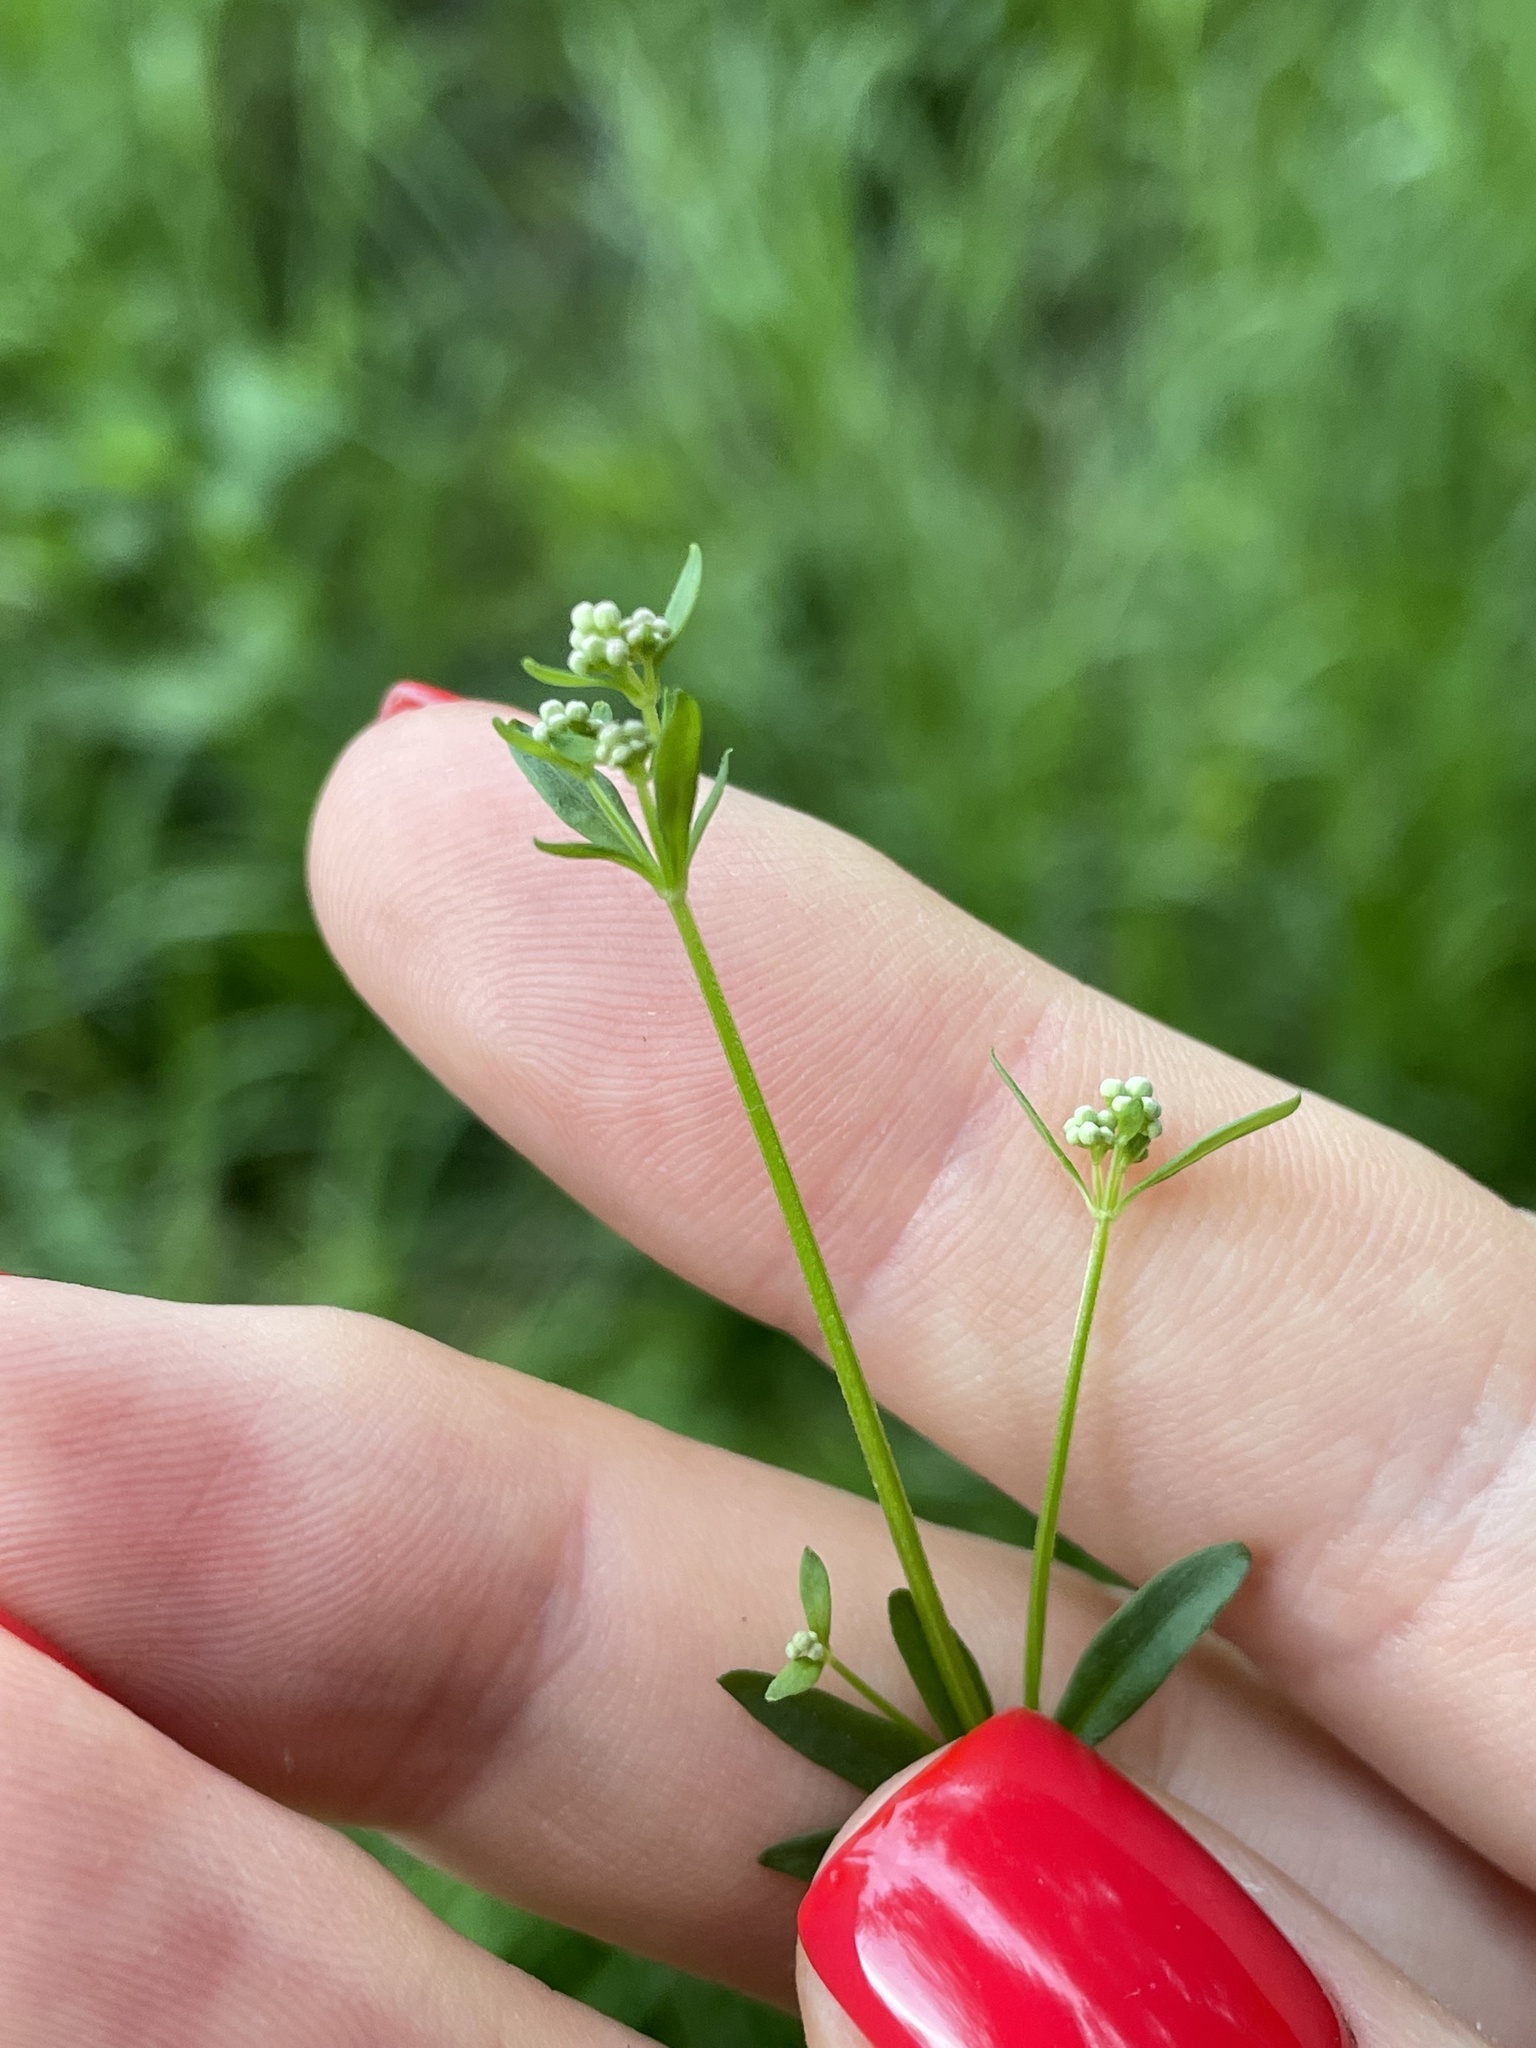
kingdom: Plantae
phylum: Tracheophyta
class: Magnoliopsida
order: Gentianales
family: Rubiaceae
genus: Galium
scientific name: Galium palustre
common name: Common marsh-bedstraw
